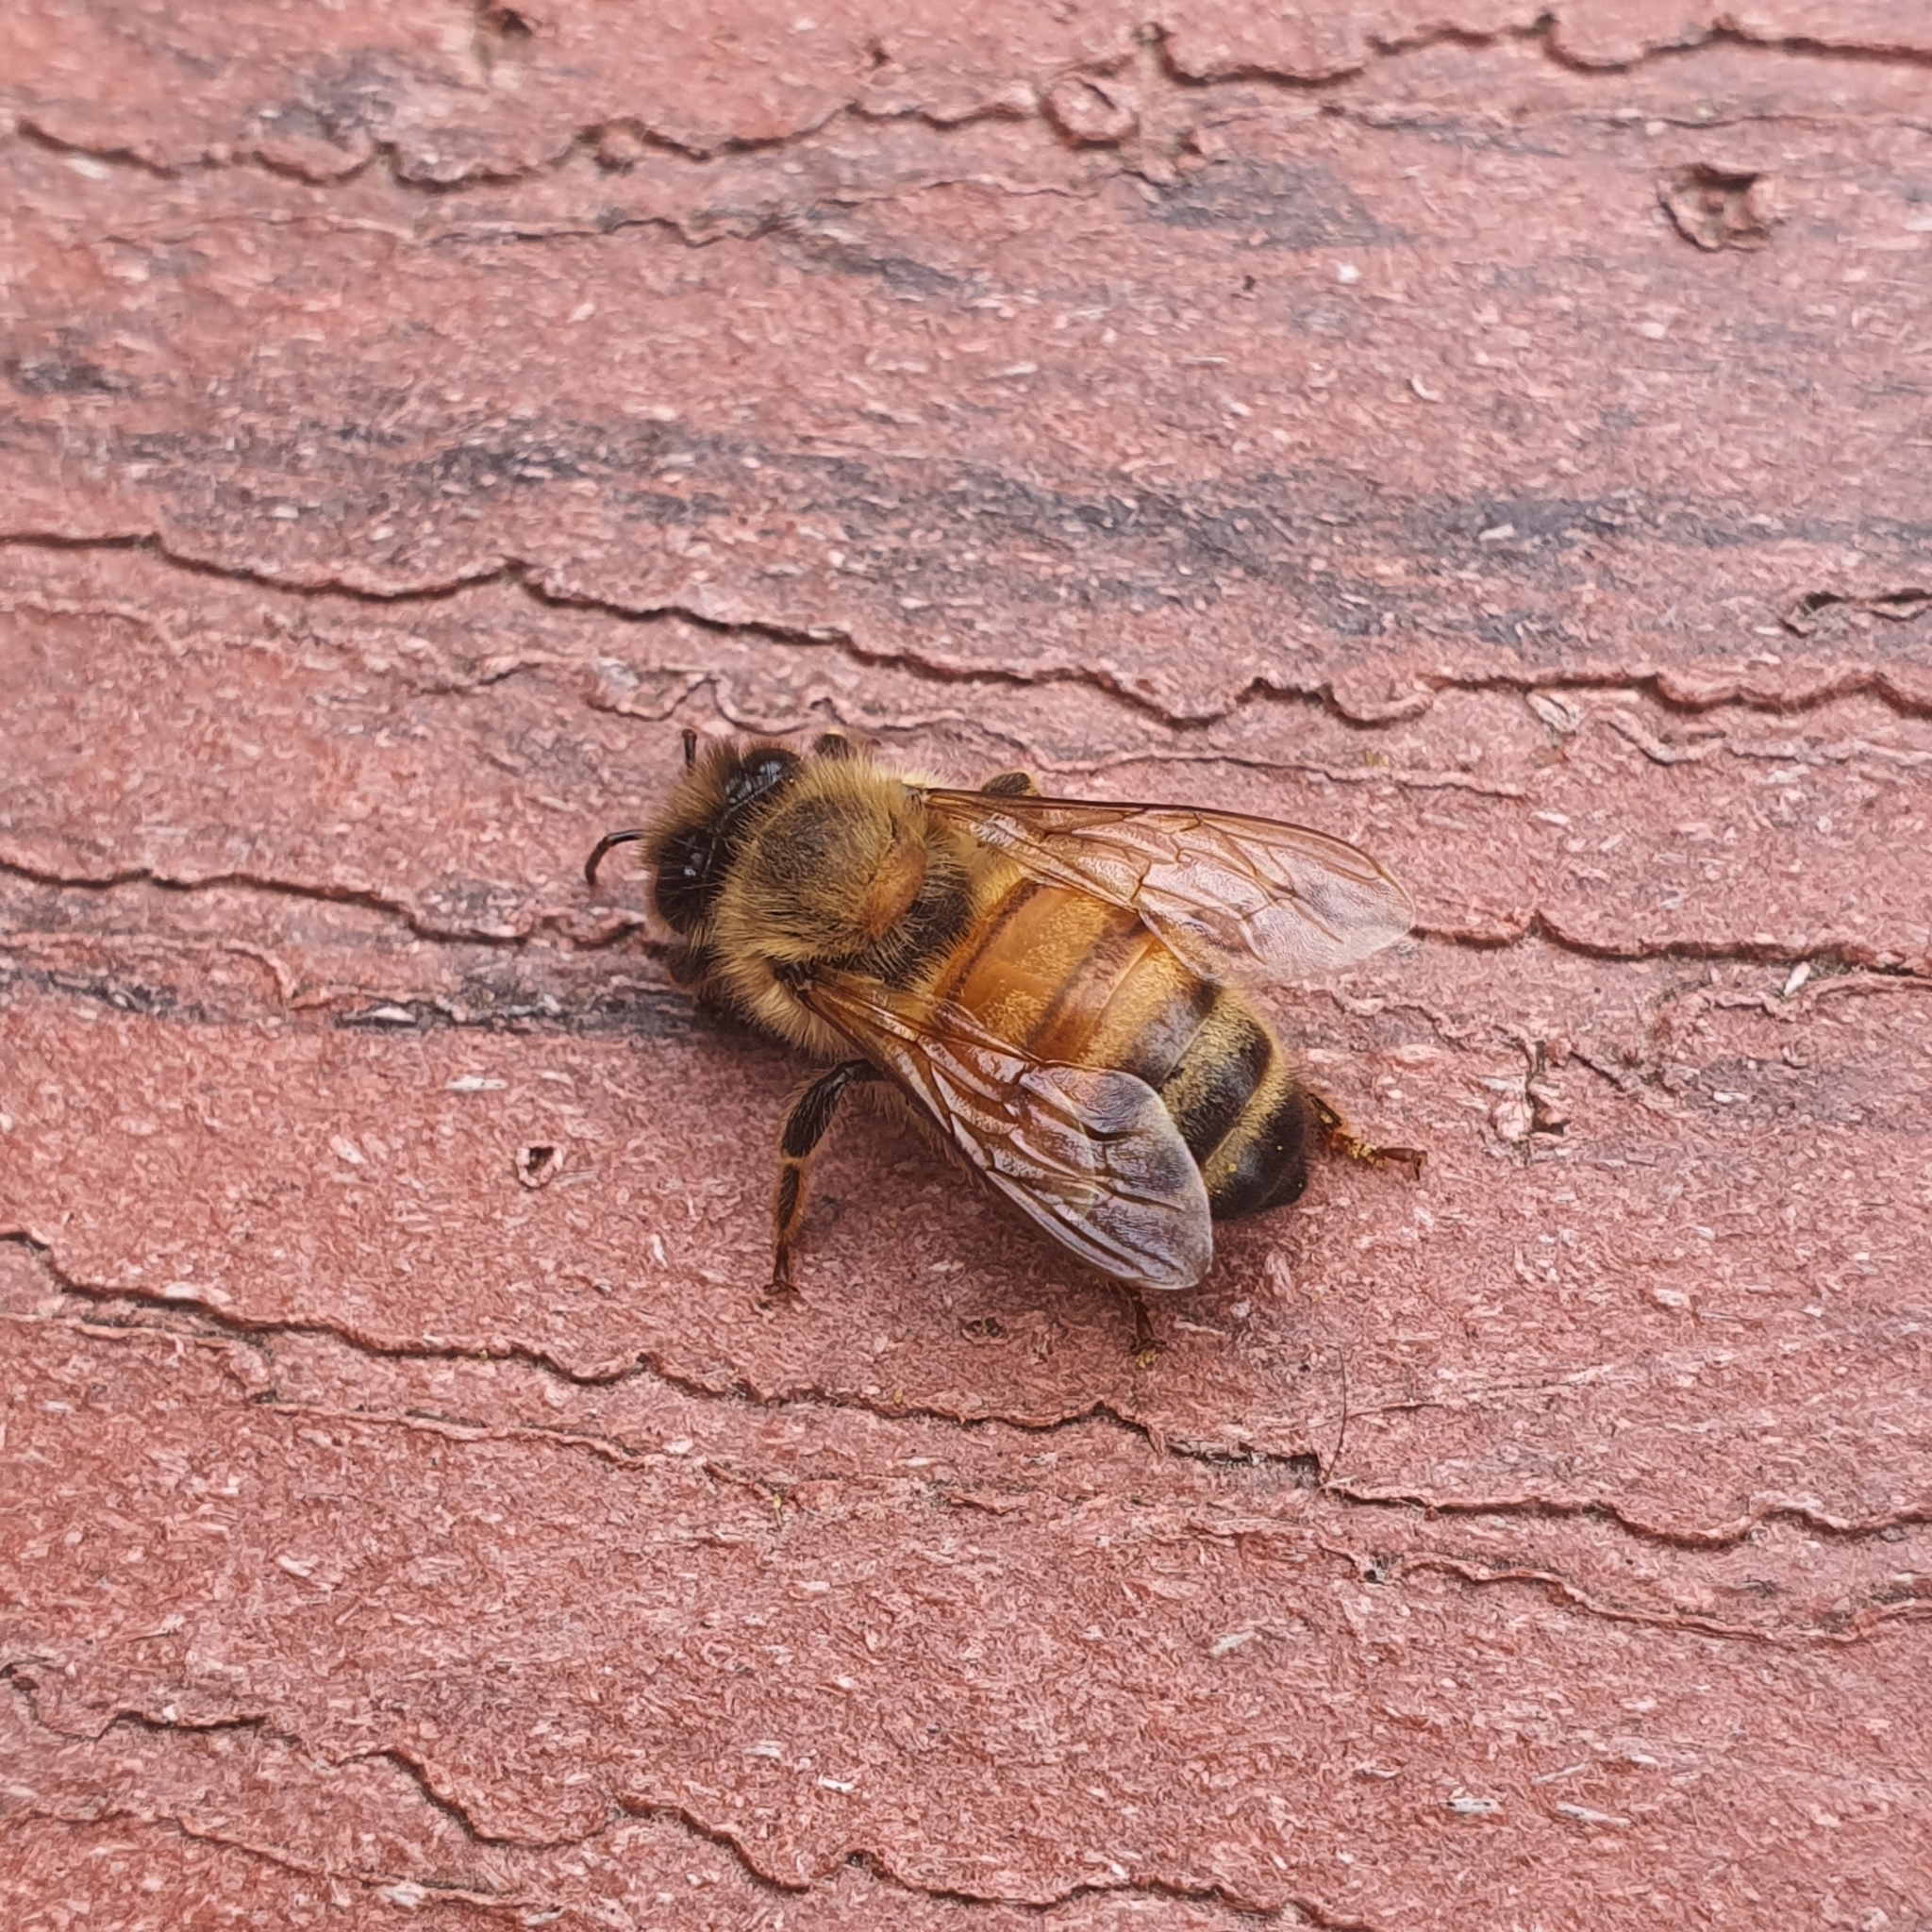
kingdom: Animalia
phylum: Arthropoda
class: Insecta
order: Hymenoptera
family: Apidae
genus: Apis
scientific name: Apis mellifera
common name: Honey bee
